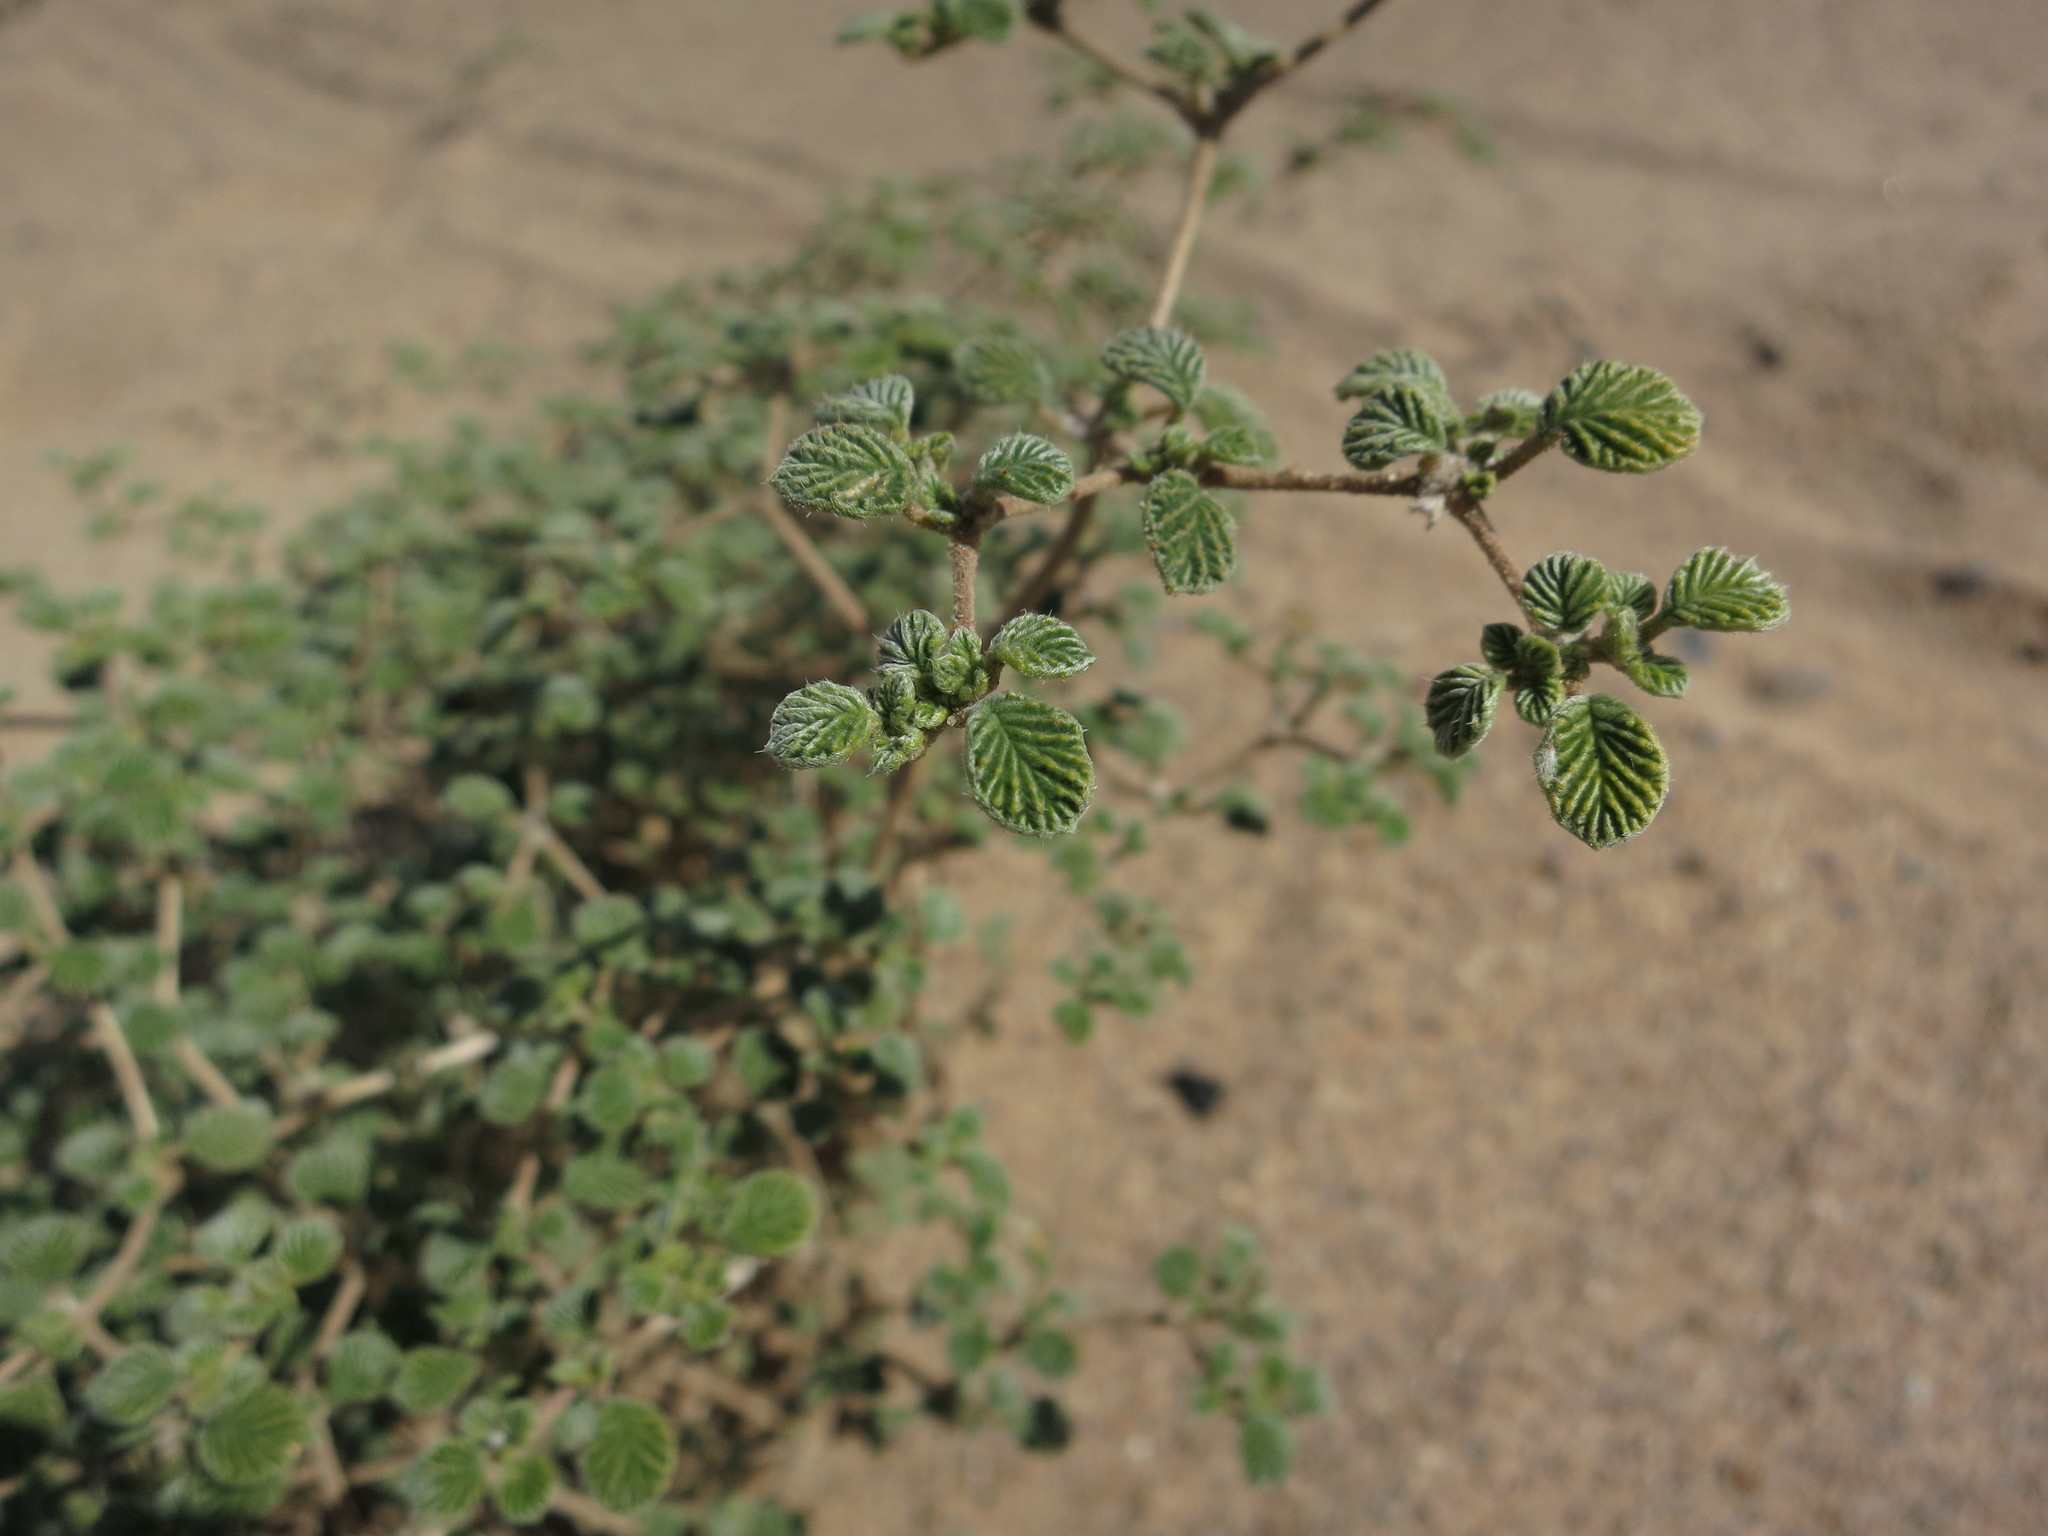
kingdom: Plantae
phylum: Tracheophyta
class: Magnoliopsida
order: Boraginales
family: Ehretiaceae
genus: Tiquilia
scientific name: Tiquilia plicata
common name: Fan-leaf tiquilia
